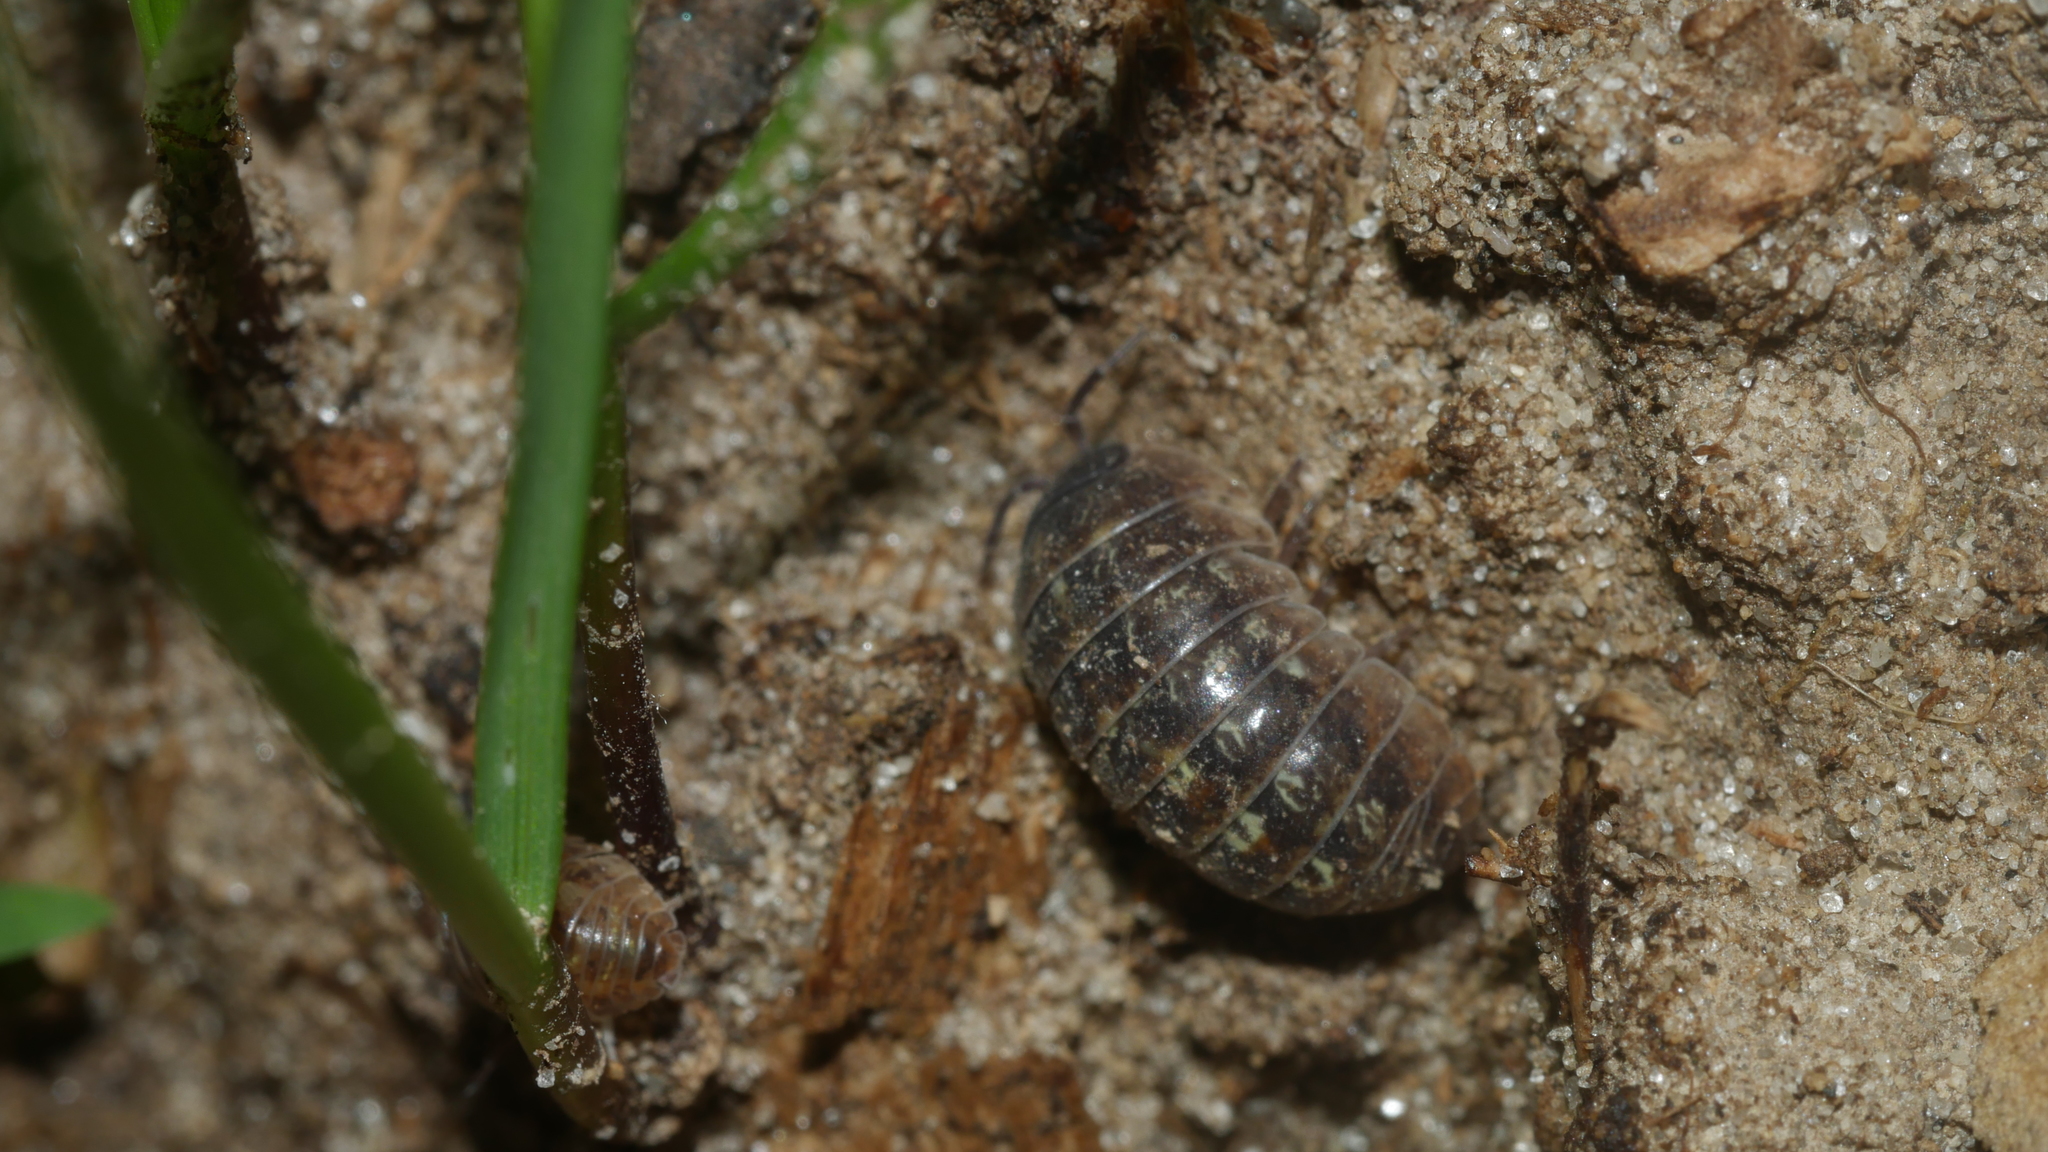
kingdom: Animalia
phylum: Arthropoda
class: Malacostraca
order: Isopoda
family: Armadillidiidae
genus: Armadillidium
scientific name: Armadillidium vulgare
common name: Common pill woodlouse
